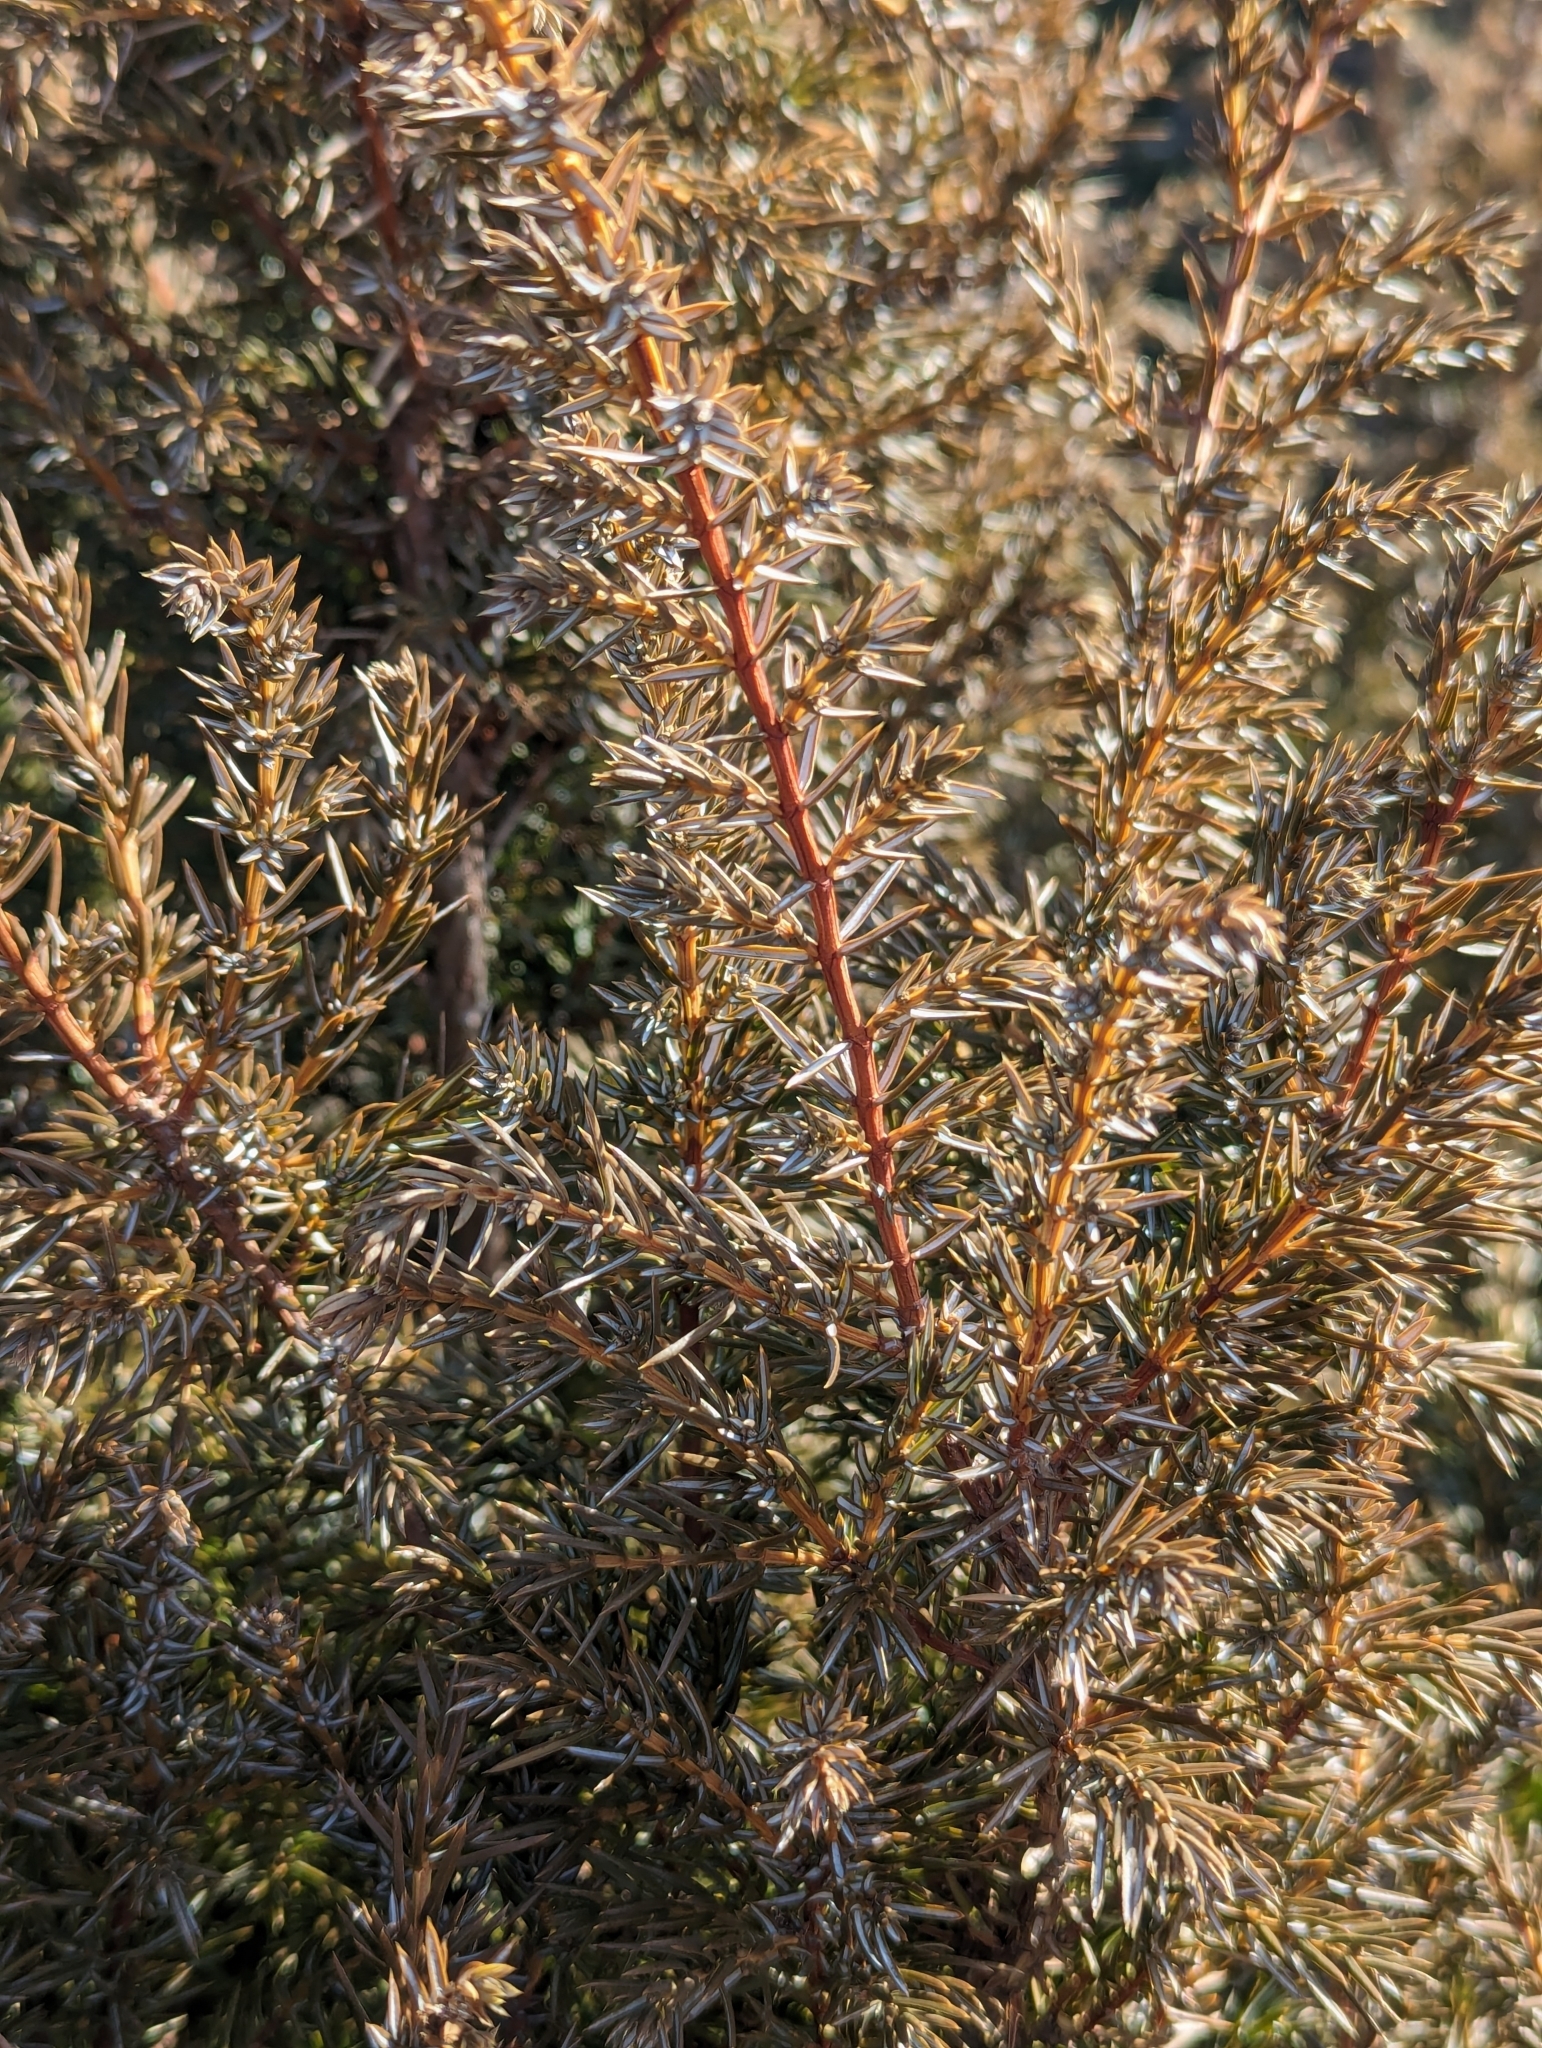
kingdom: Plantae
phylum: Tracheophyta
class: Pinopsida
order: Pinales
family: Cupressaceae
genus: Juniperus
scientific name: Juniperus communis
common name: Common juniper
